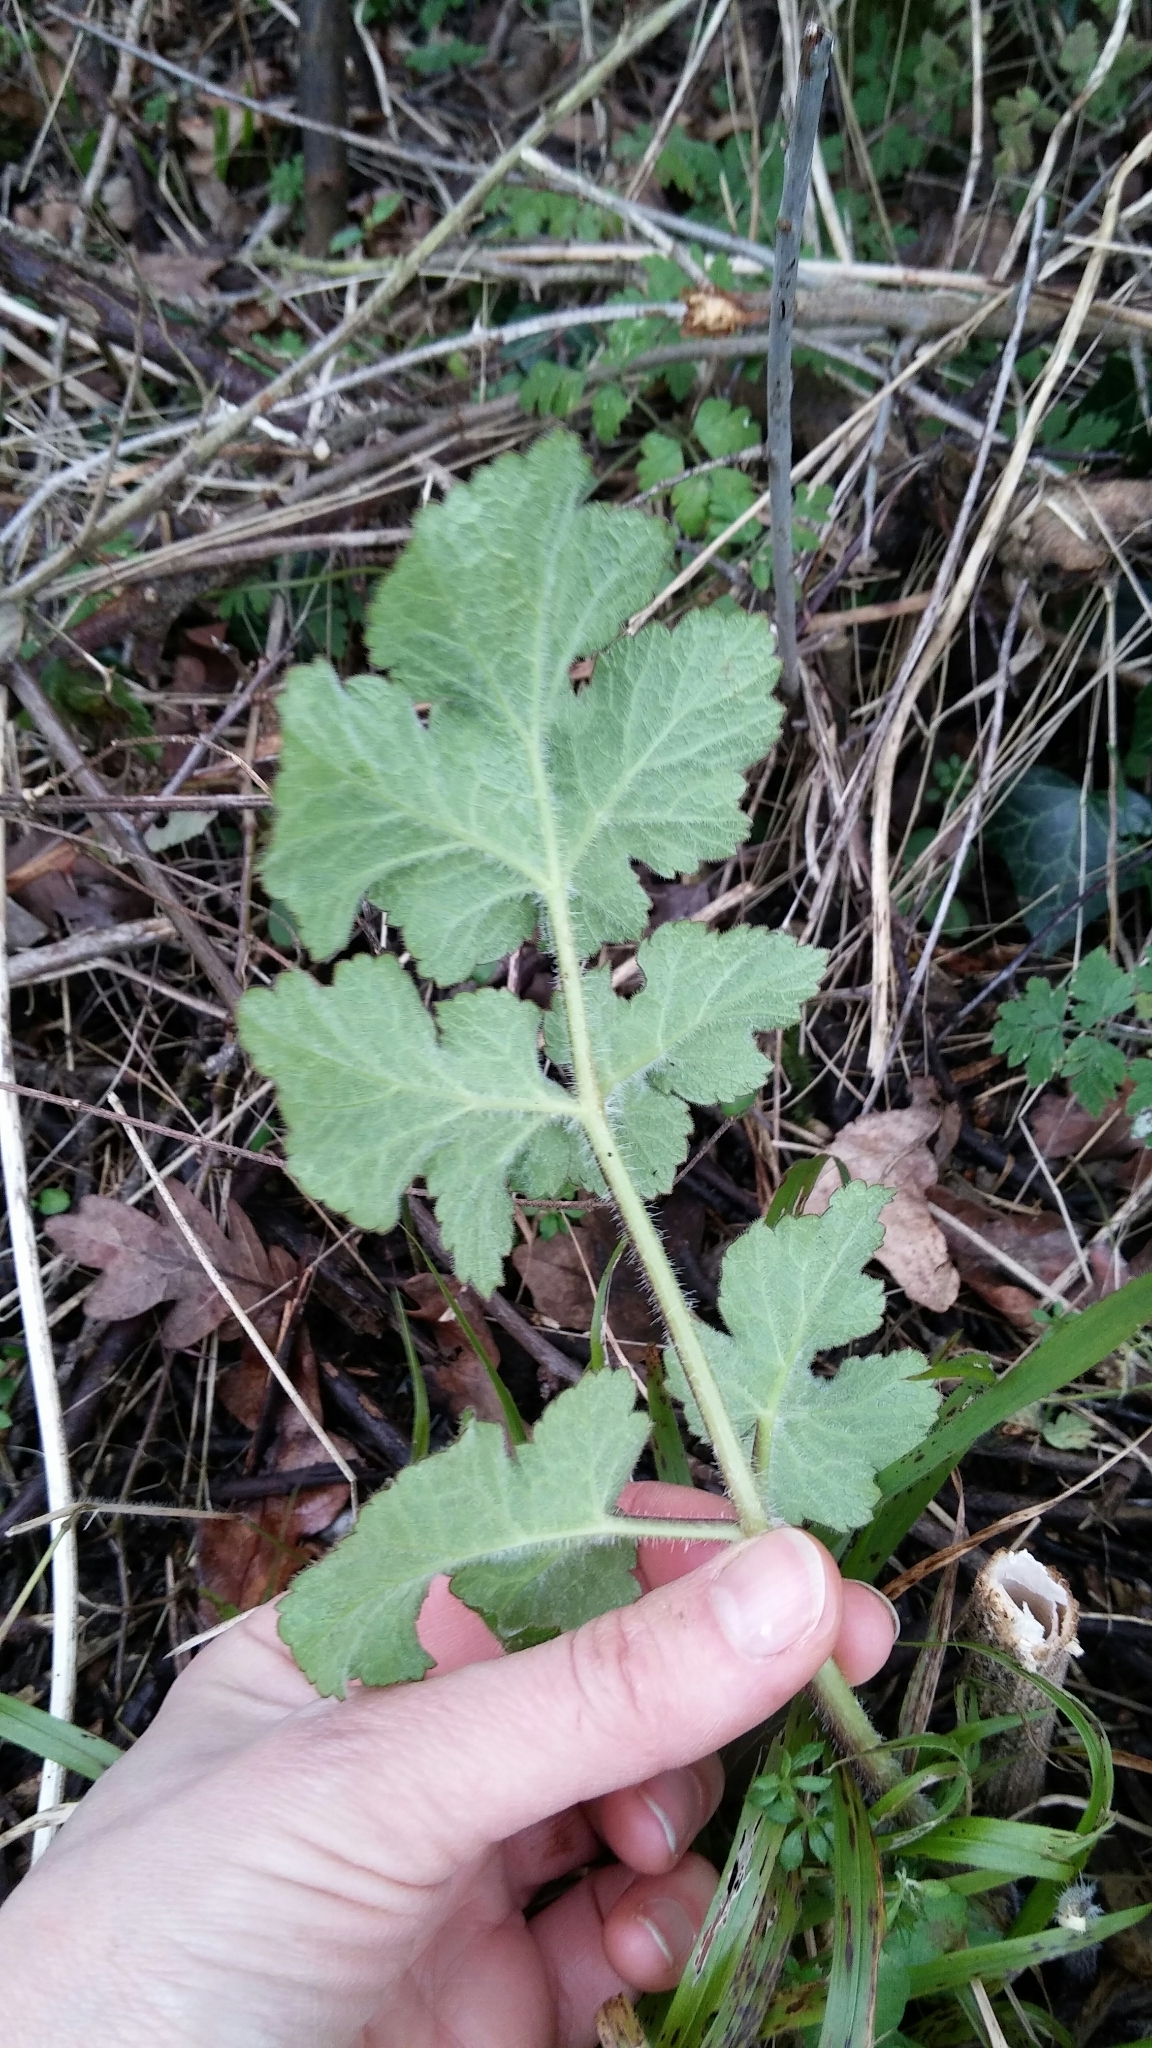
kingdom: Plantae
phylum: Tracheophyta
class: Magnoliopsida
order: Apiales
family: Apiaceae
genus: Heracleum
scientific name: Heracleum sphondylium
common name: Hogweed
